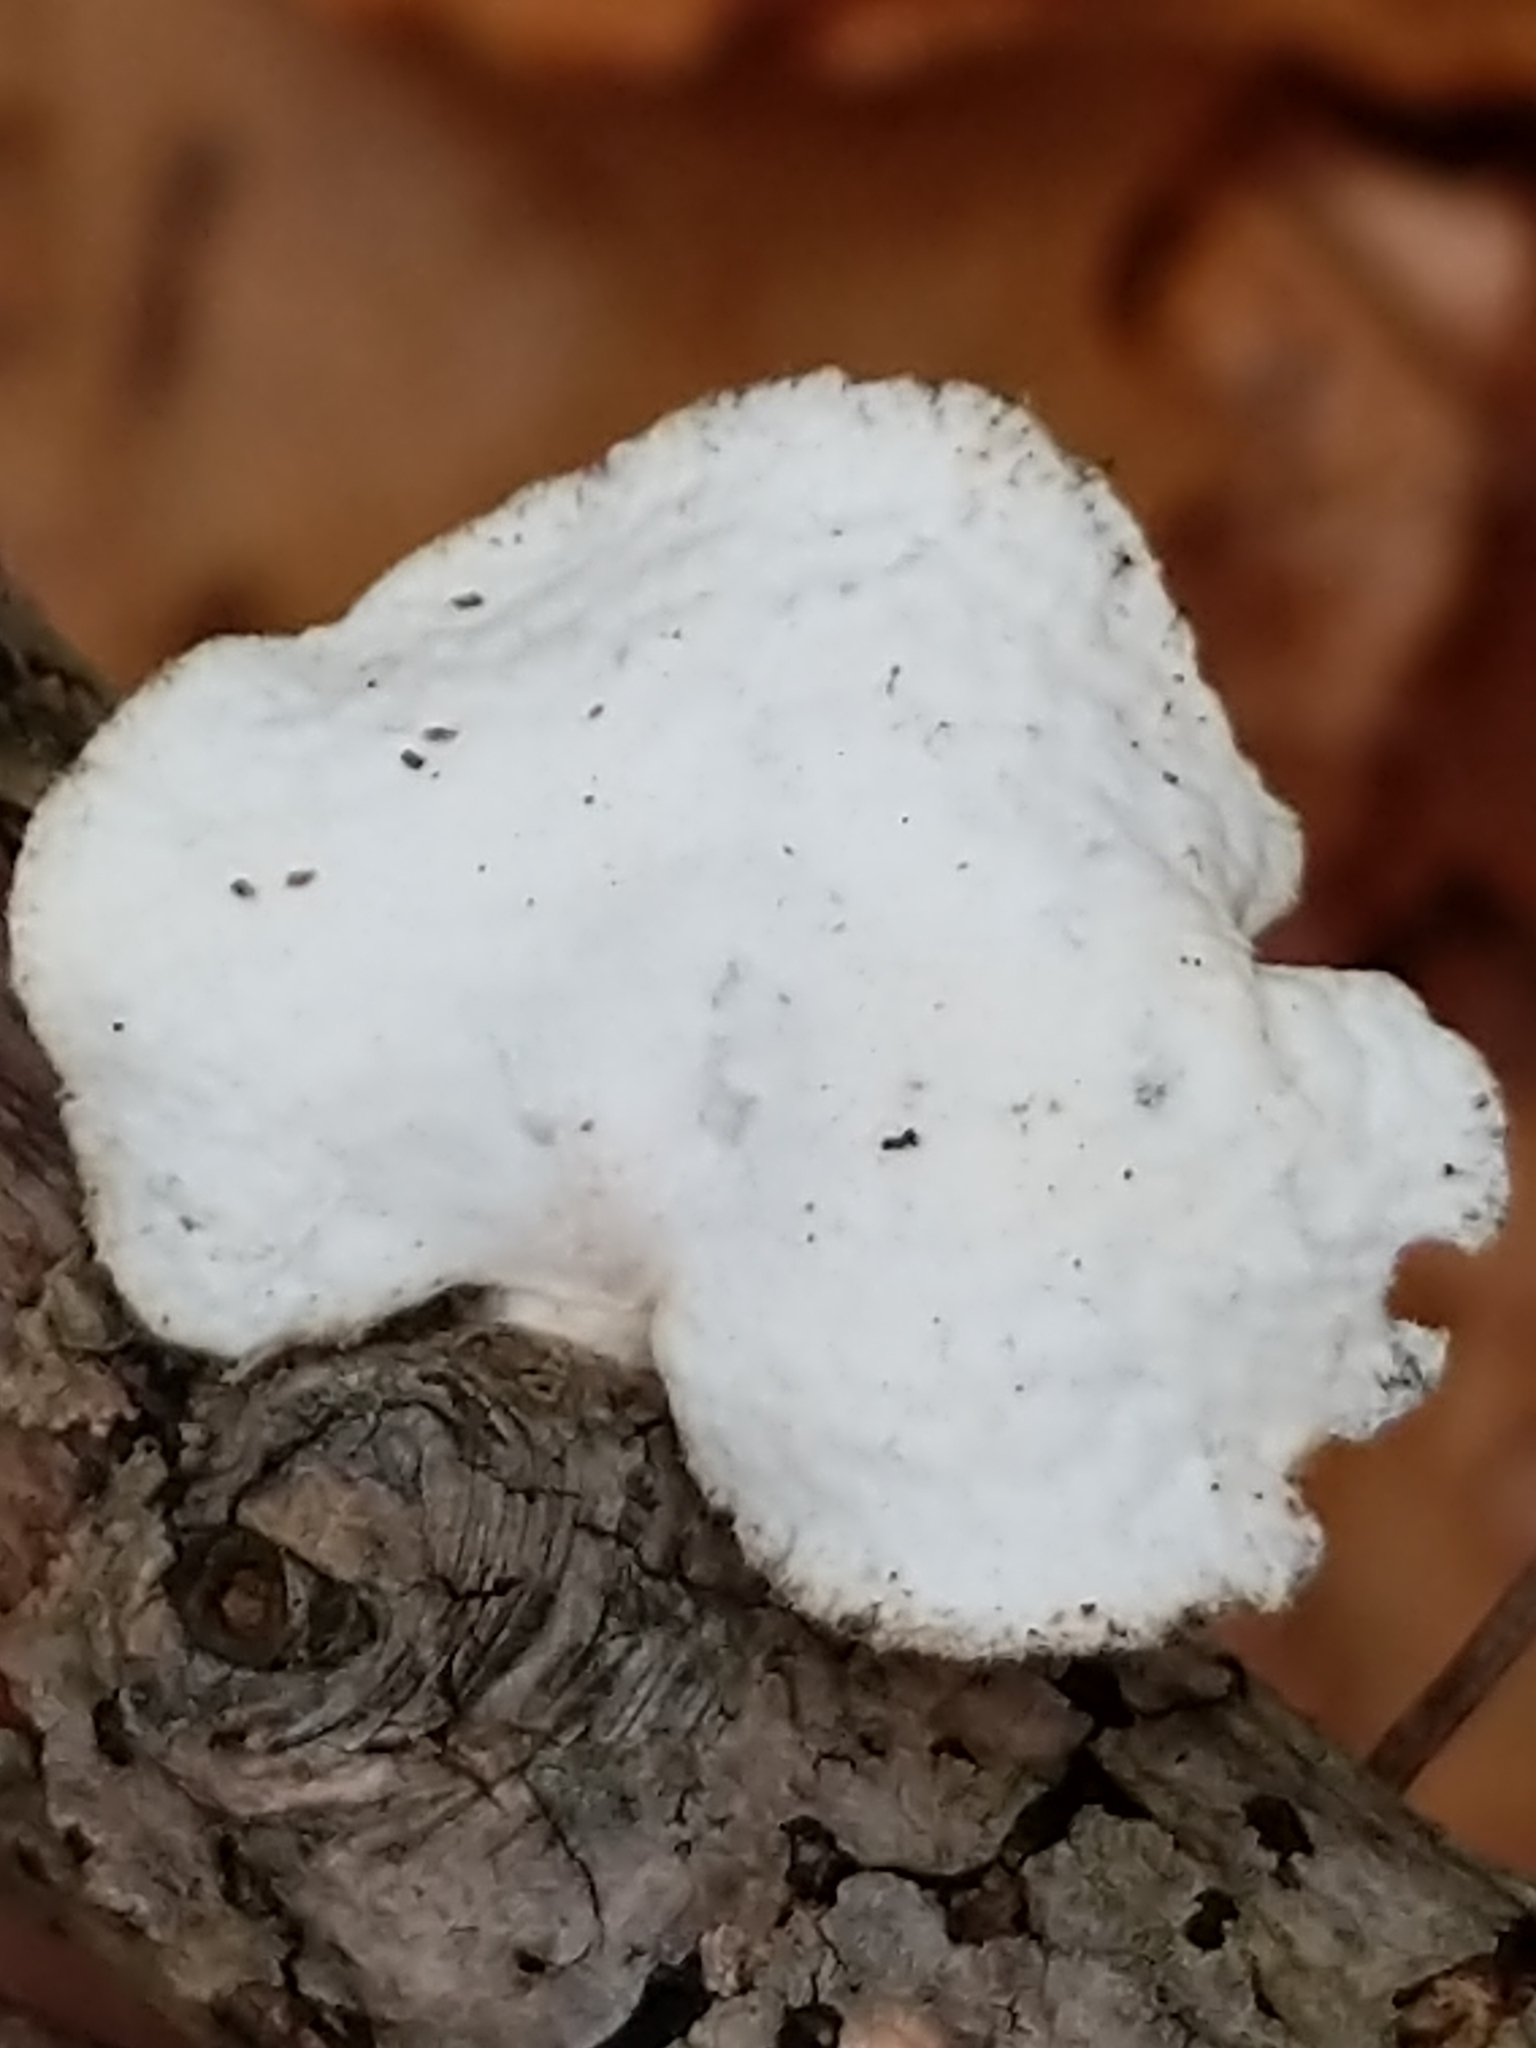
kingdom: Fungi
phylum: Basidiomycota
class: Agaricomycetes
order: Polyporales
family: Polyporaceae
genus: Neofavolus
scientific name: Neofavolus alveolaris
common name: Hexagonal-pored polypore
